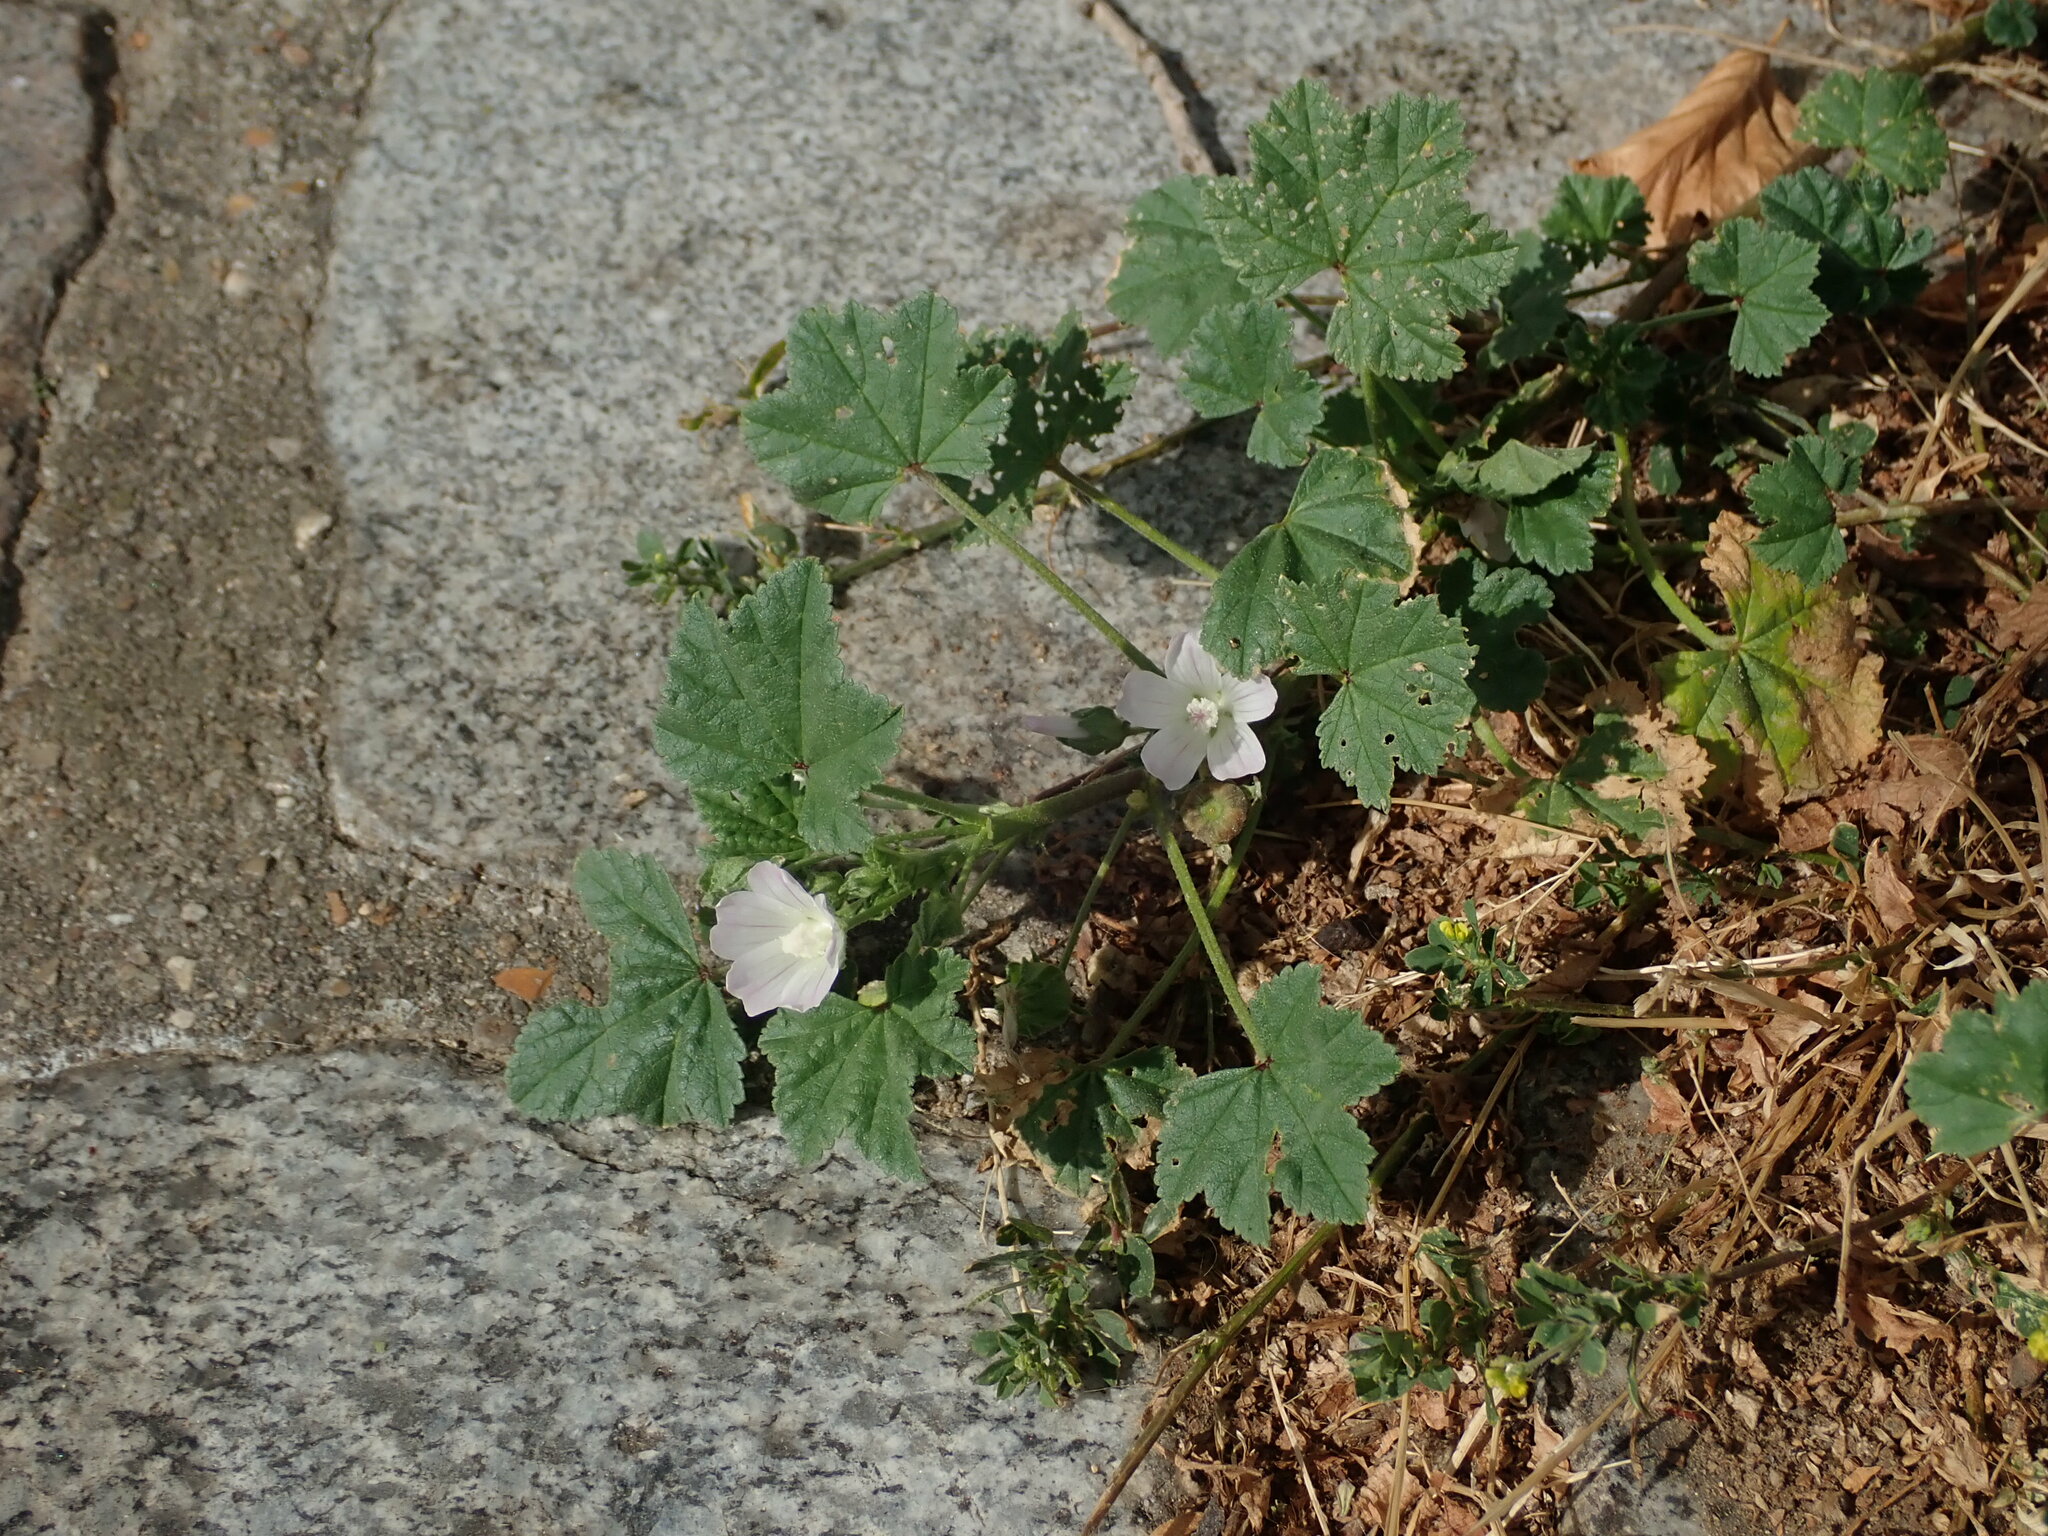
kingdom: Plantae
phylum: Tracheophyta
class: Magnoliopsida
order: Malvales
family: Malvaceae
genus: Malva
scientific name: Malva neglecta
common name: Common mallow
